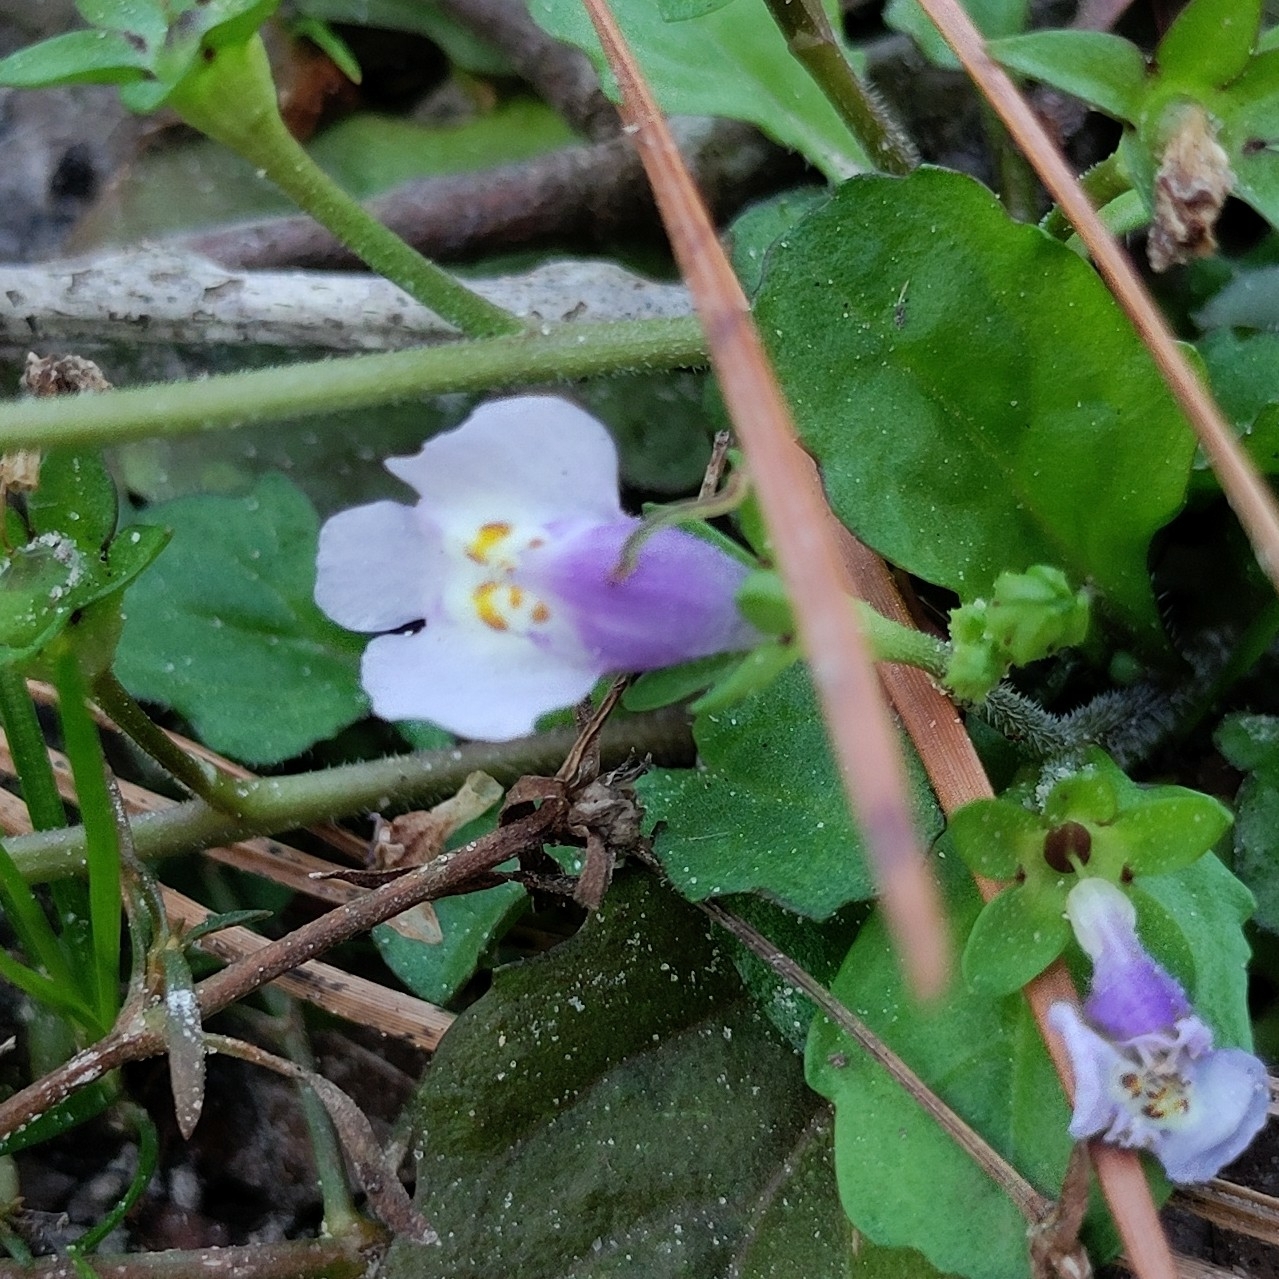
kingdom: Plantae
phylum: Tracheophyta
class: Magnoliopsida
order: Lamiales
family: Mazaceae
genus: Mazus
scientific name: Mazus pumilus
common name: Japanese mazus
